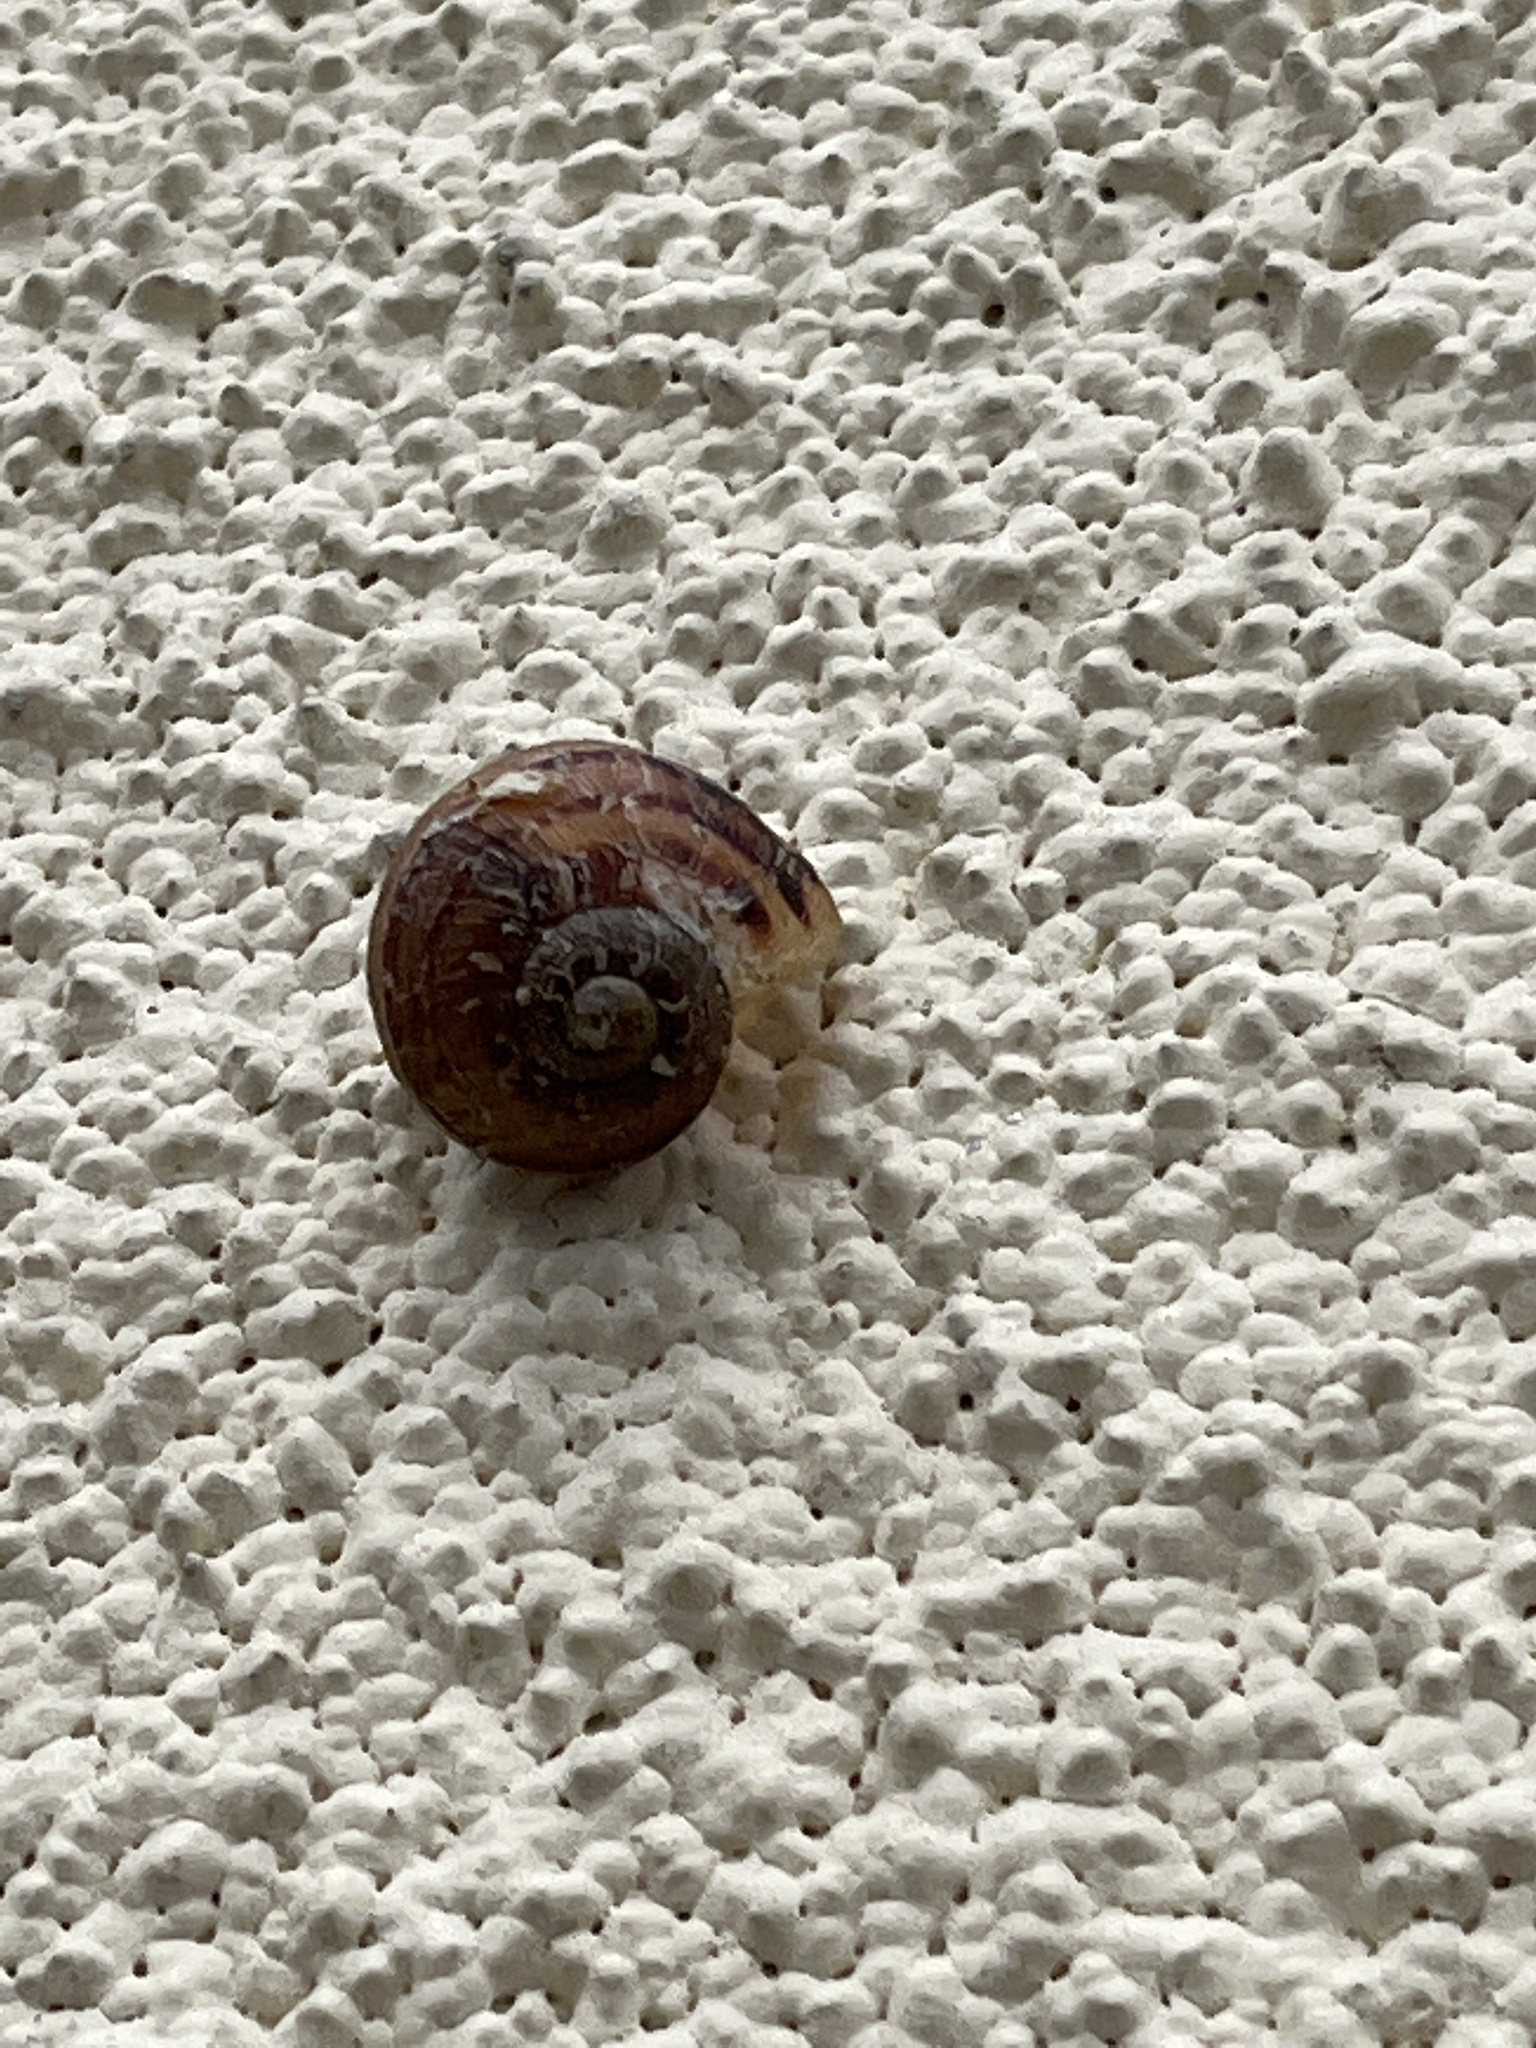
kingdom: Animalia
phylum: Mollusca
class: Gastropoda
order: Stylommatophora
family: Helicidae
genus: Cornu
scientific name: Cornu aspersum
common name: Brown garden snail
